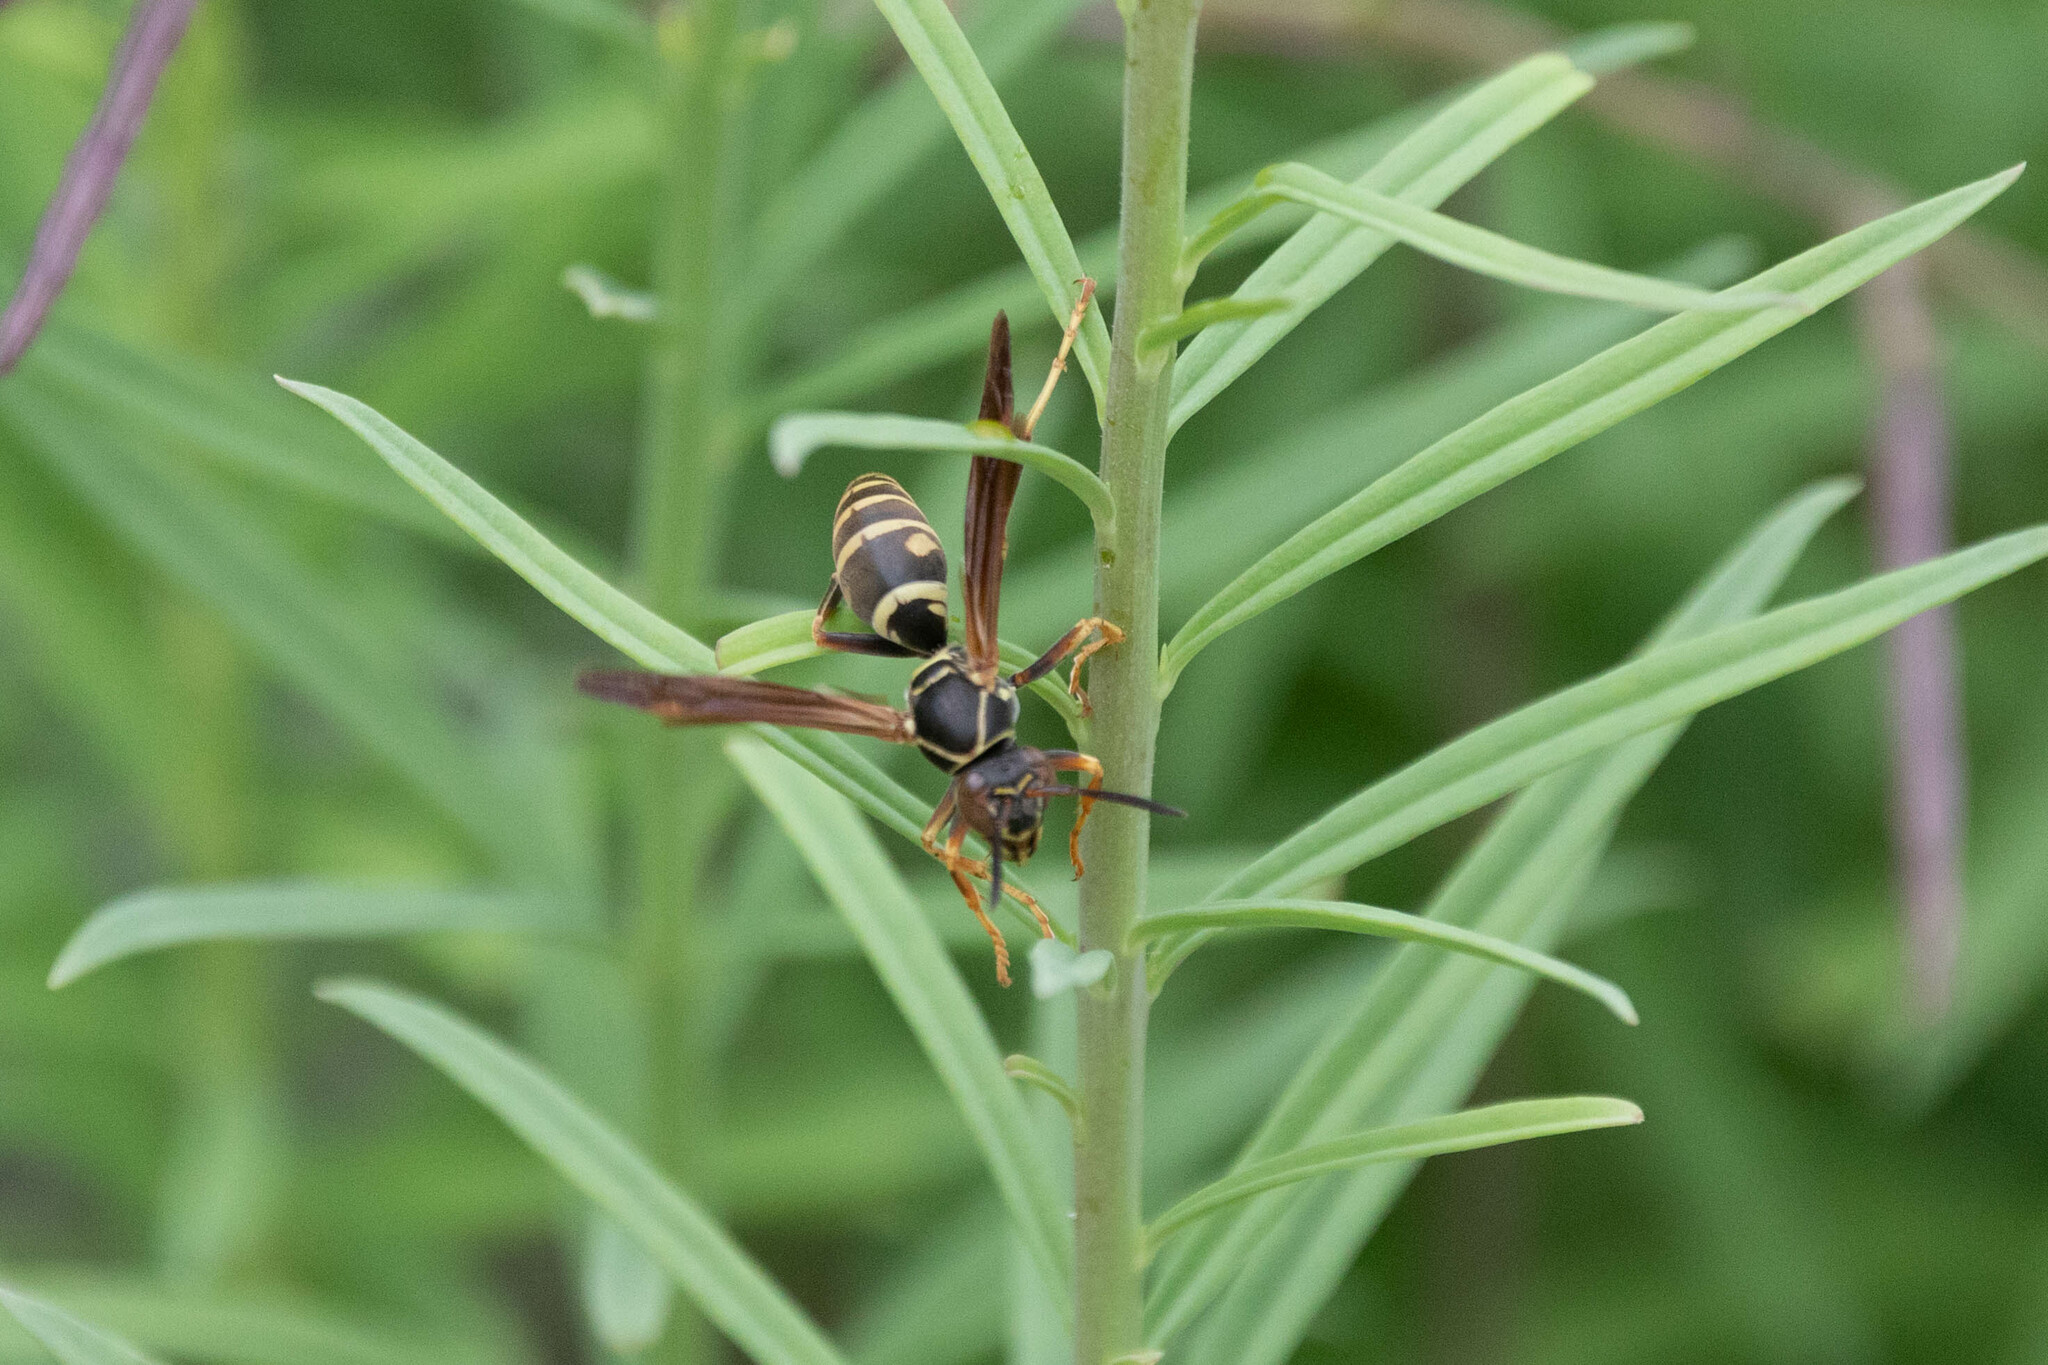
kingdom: Animalia
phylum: Arthropoda
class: Insecta
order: Hymenoptera
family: Eumenidae
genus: Polistes
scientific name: Polistes fuscatus
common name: Dark paper wasp
